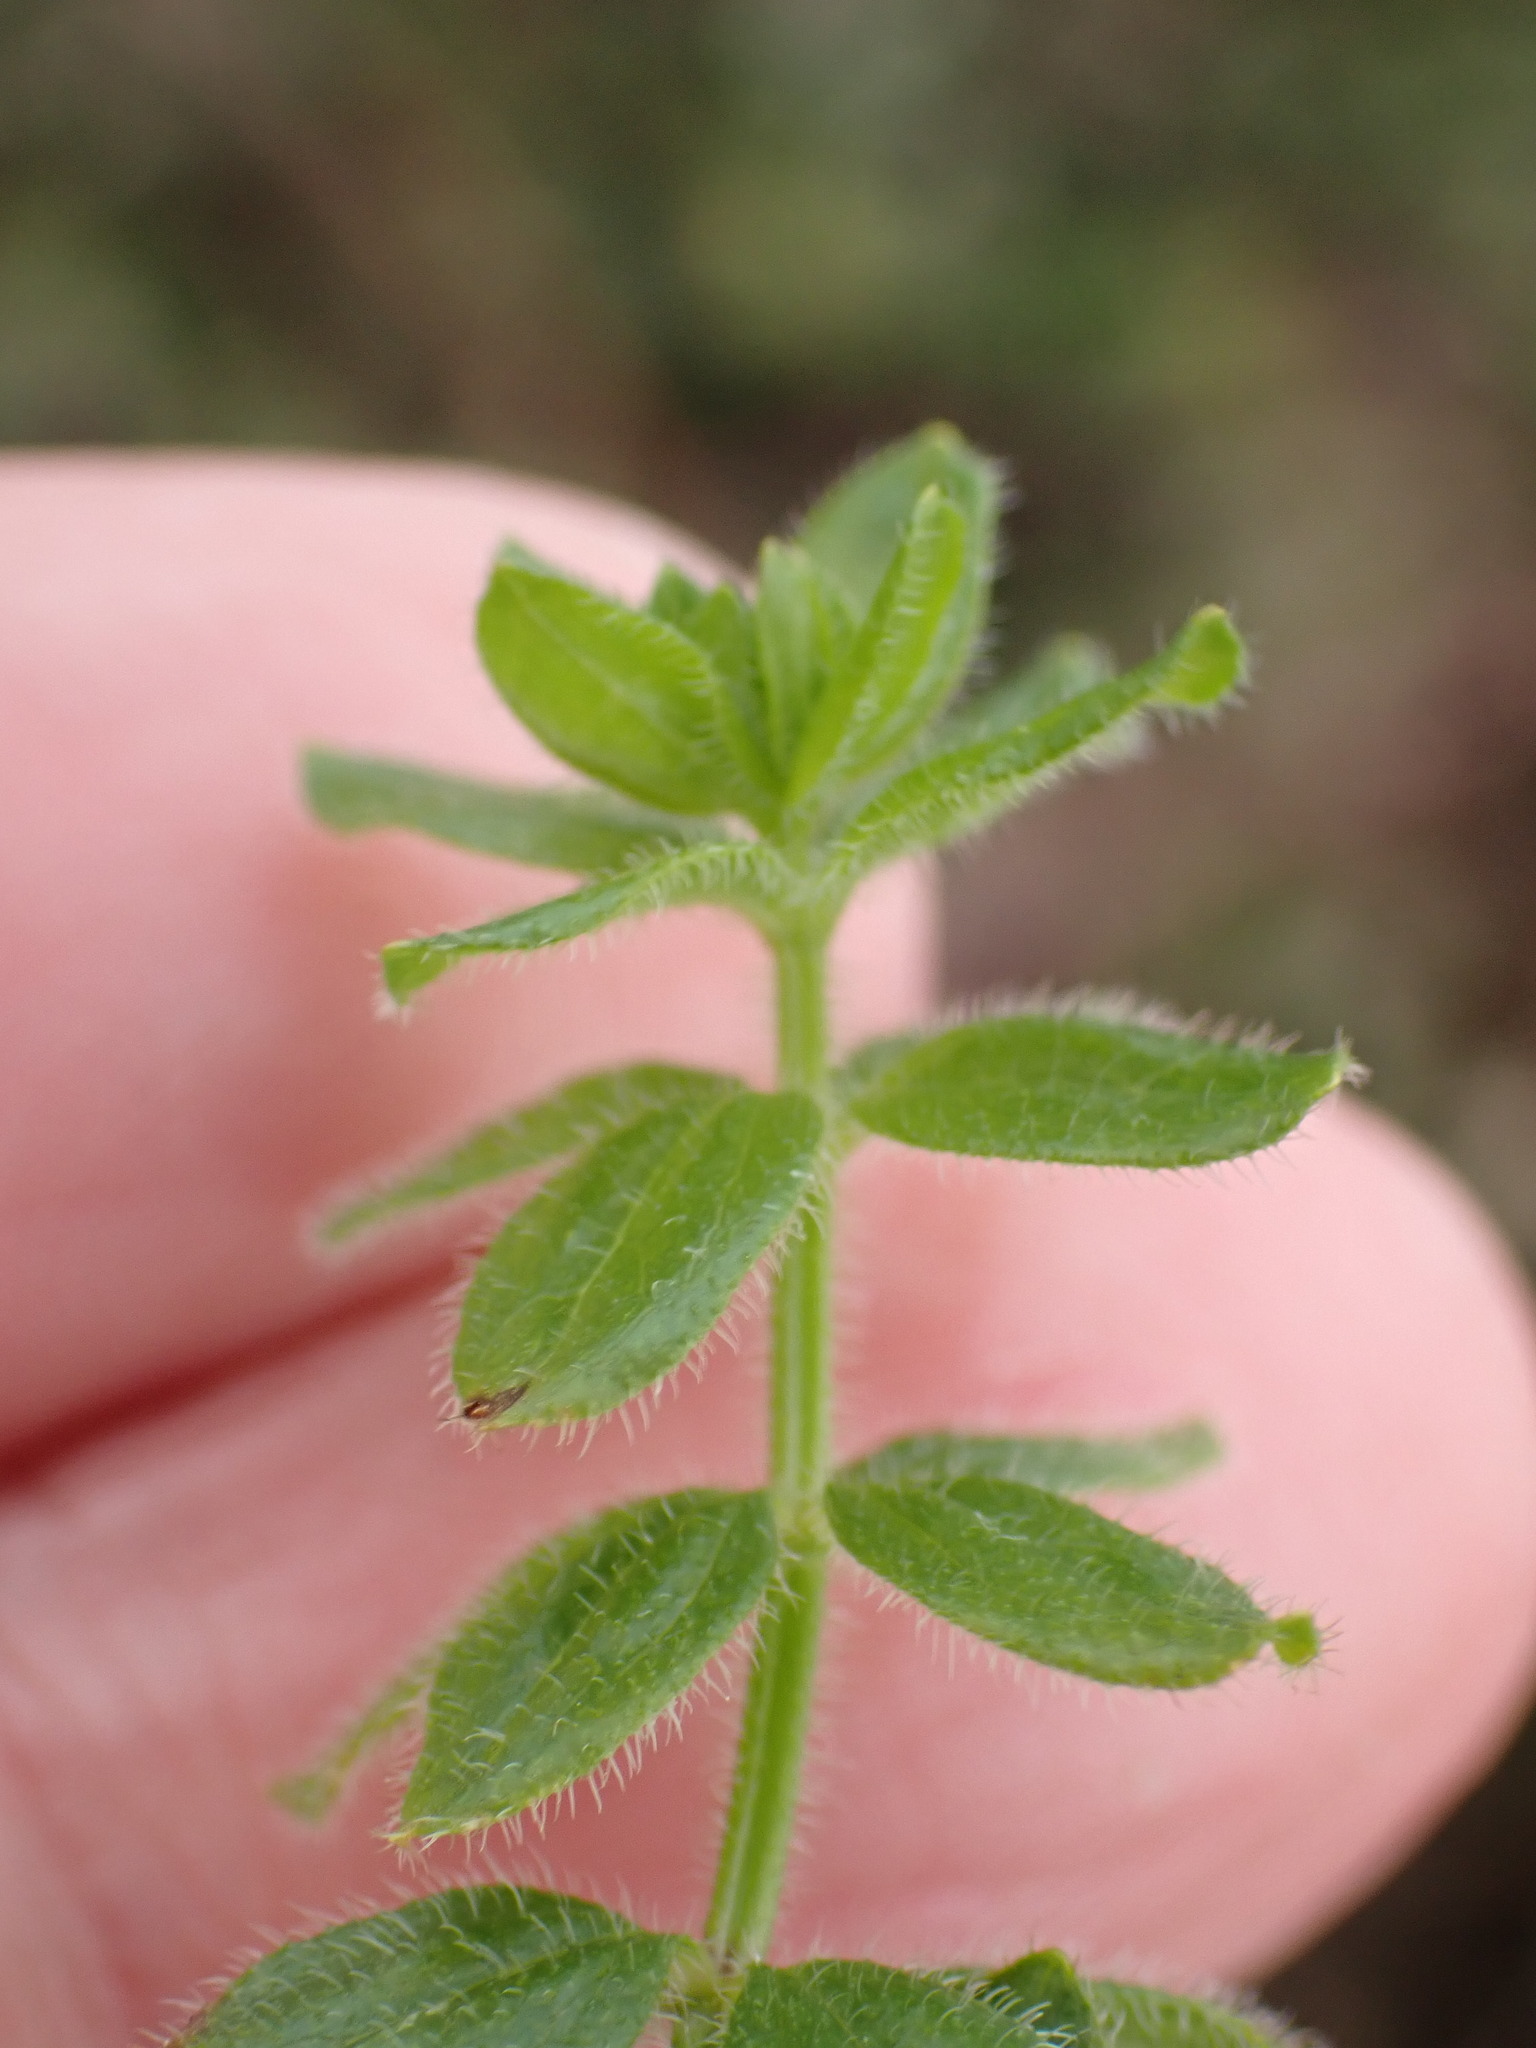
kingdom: Plantae
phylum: Tracheophyta
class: Magnoliopsida
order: Gentianales
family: Rubiaceae
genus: Cruciata
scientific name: Cruciata laevipes
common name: Crosswort
